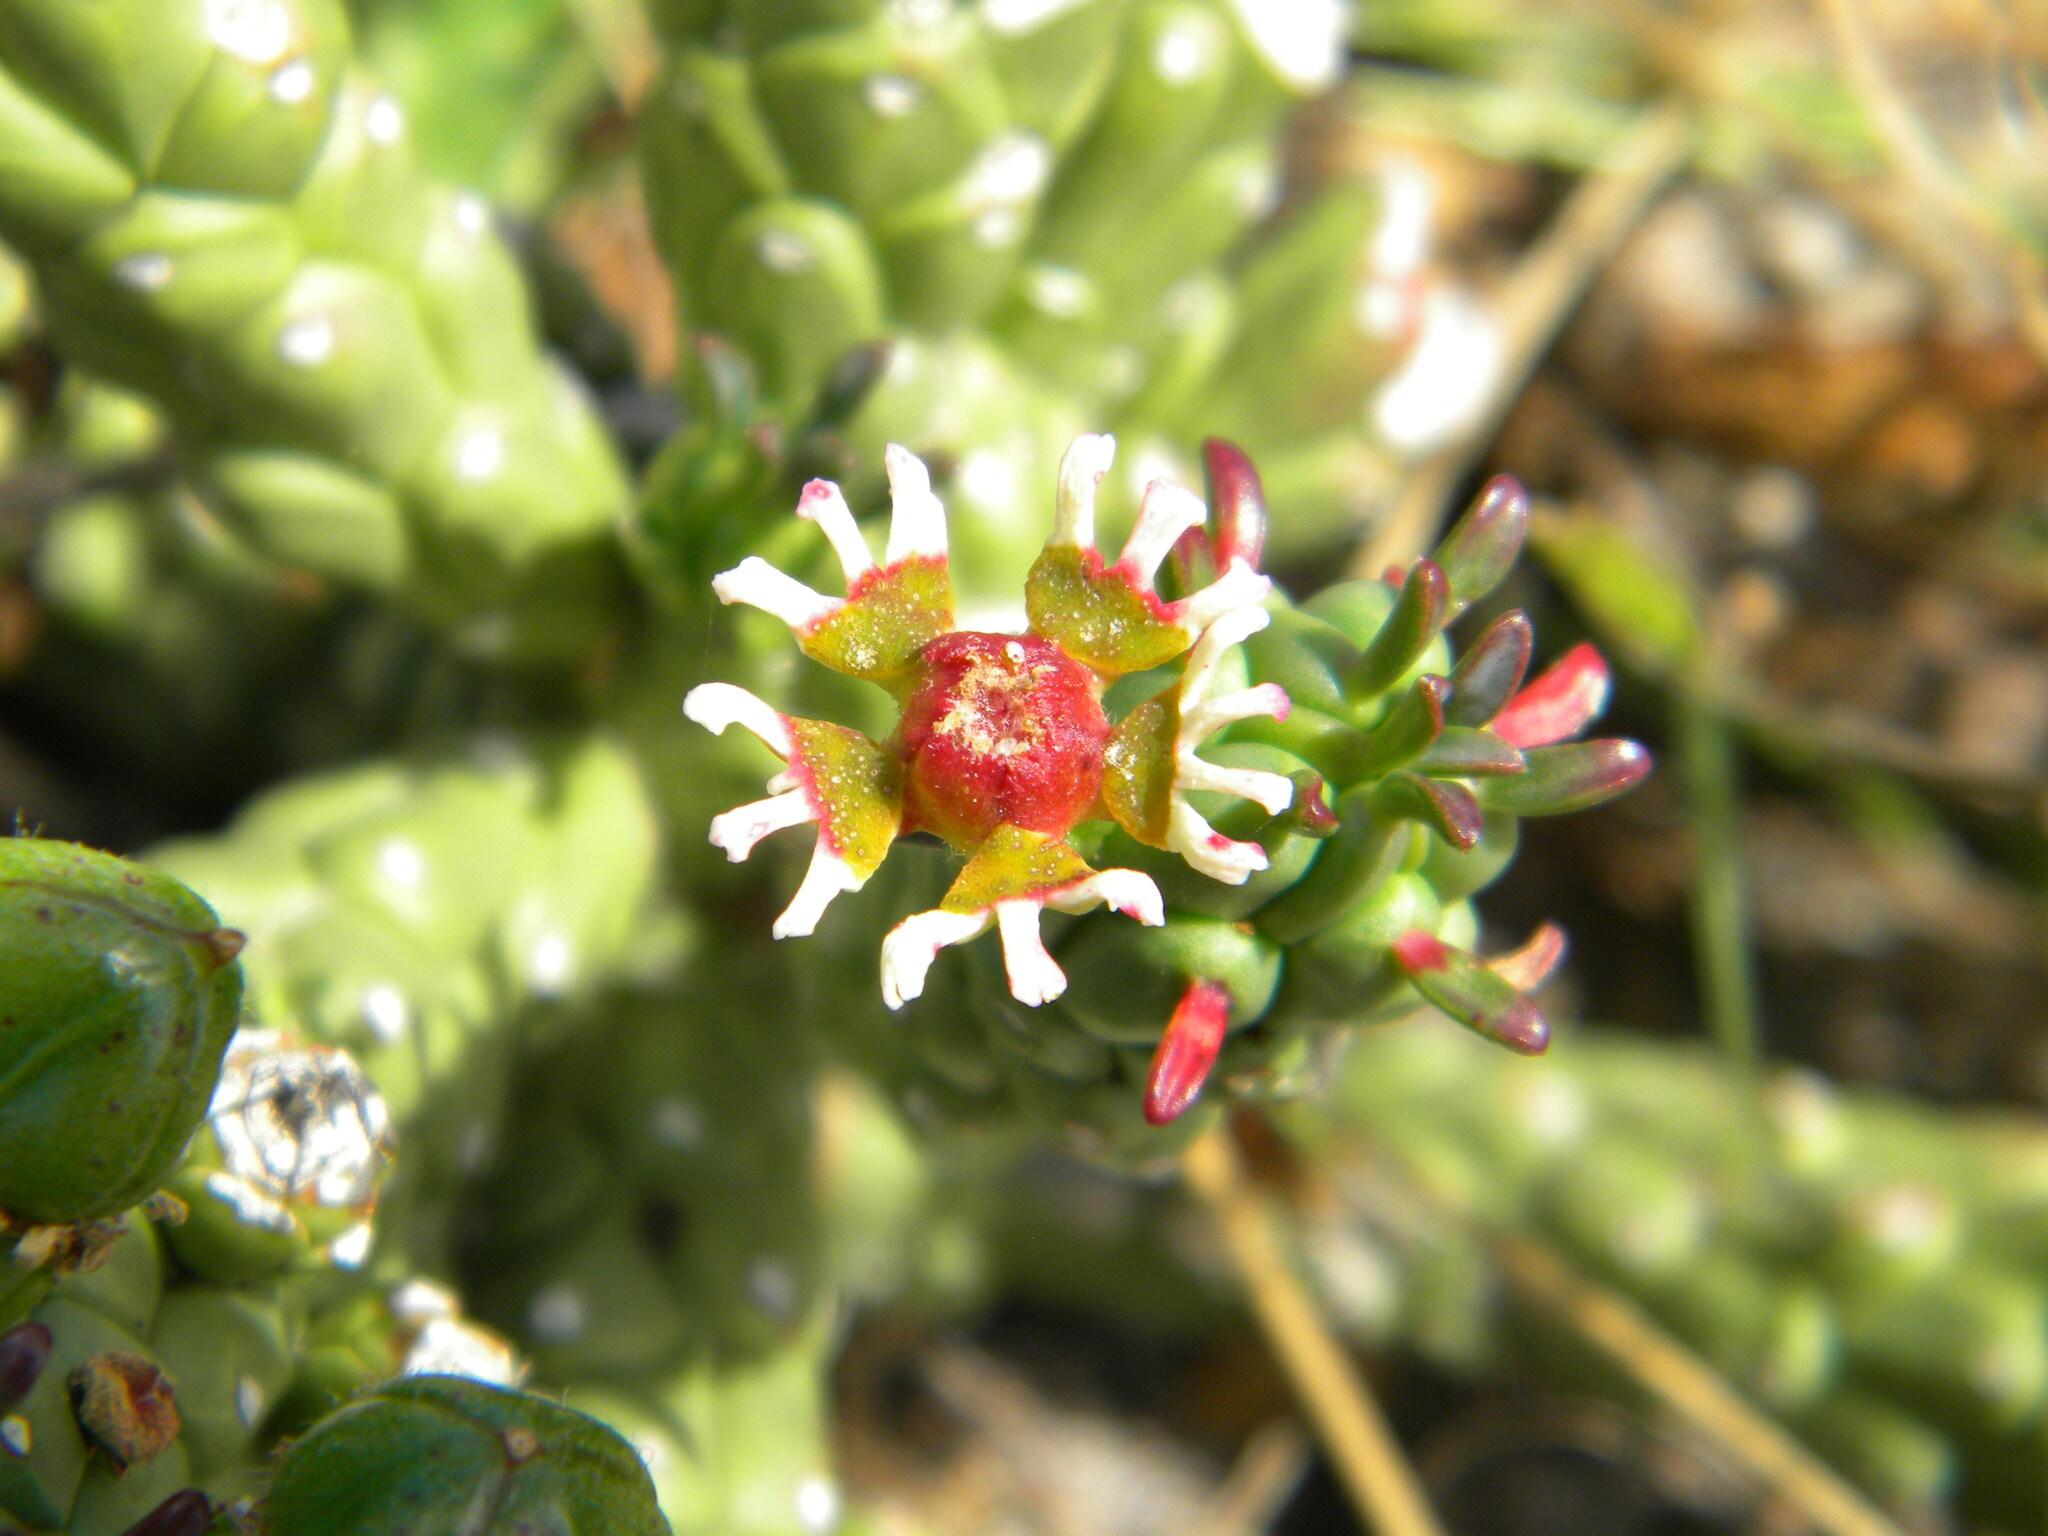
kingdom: Plantae
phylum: Tracheophyta
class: Magnoliopsida
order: Malpighiales
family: Euphorbiaceae
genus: Euphorbia
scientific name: Euphorbia caput-medusae
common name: Medusa's-head
